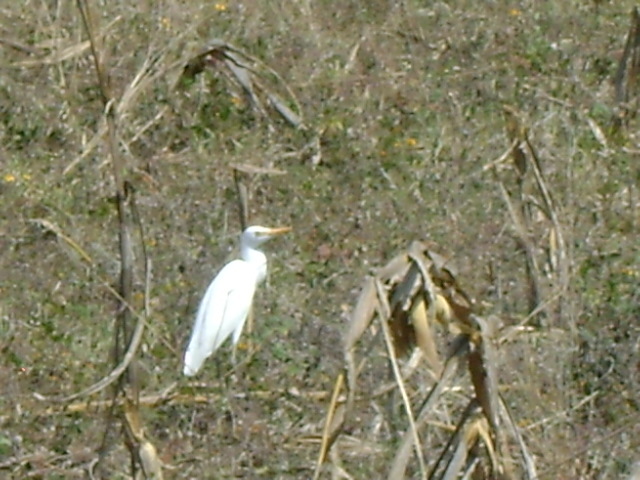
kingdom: Animalia
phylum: Chordata
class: Aves
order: Pelecaniformes
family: Ardeidae
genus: Bubulcus
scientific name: Bubulcus ibis
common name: Cattle egret
